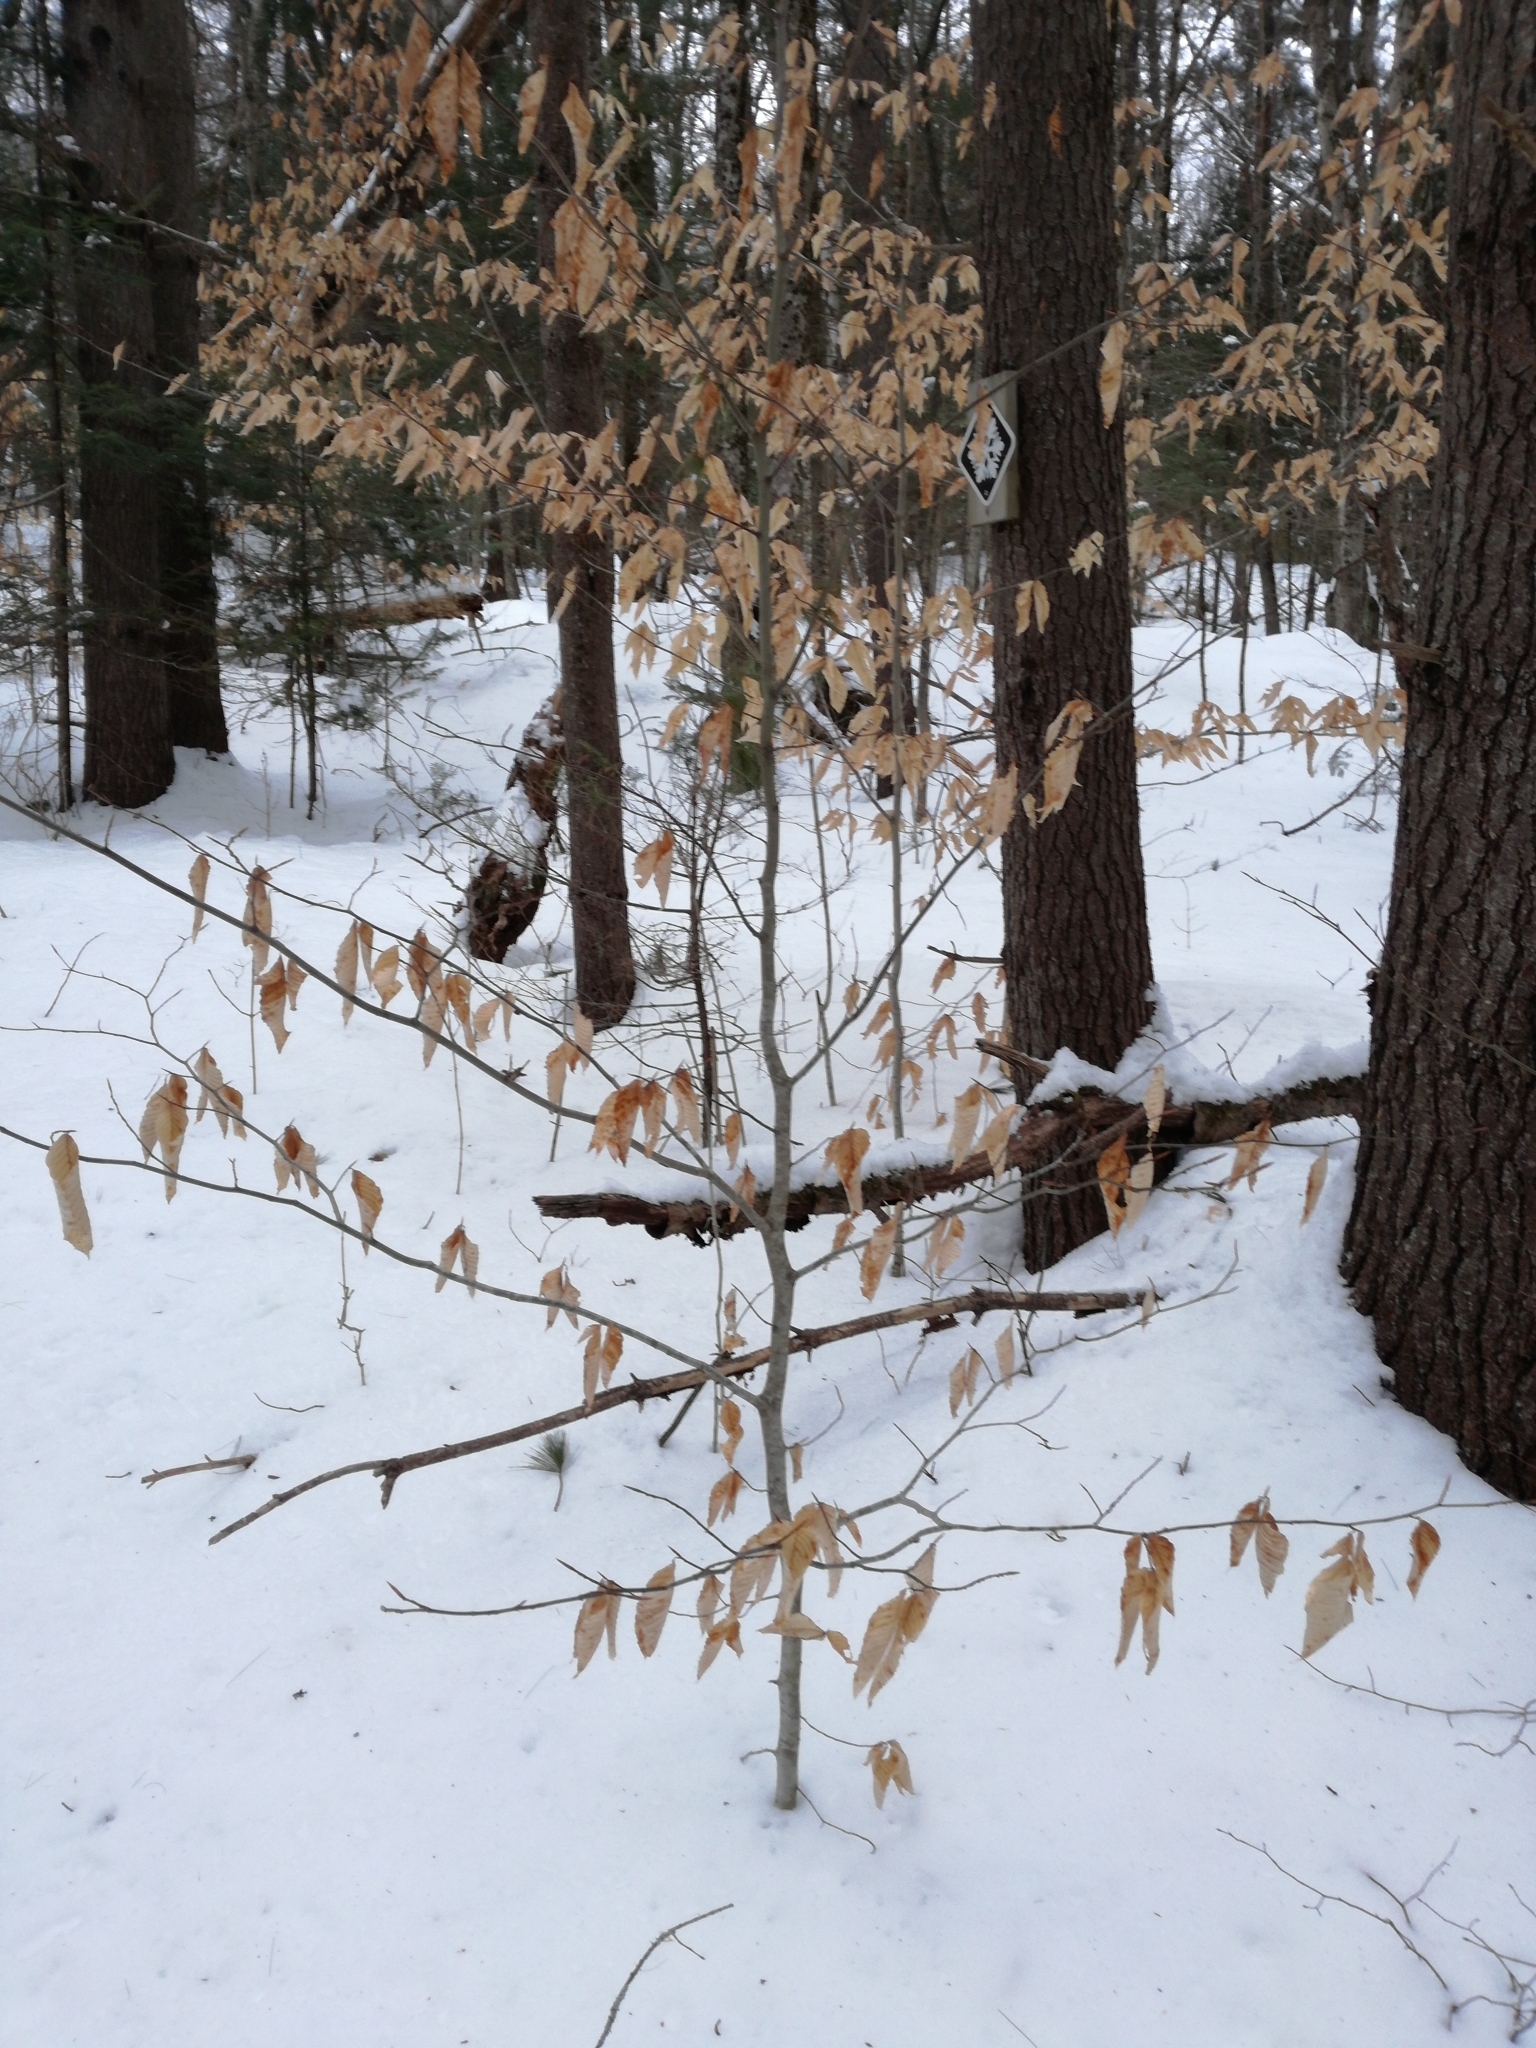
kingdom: Plantae
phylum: Tracheophyta
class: Magnoliopsida
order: Fagales
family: Fagaceae
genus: Fagus
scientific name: Fagus grandifolia
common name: American beech
